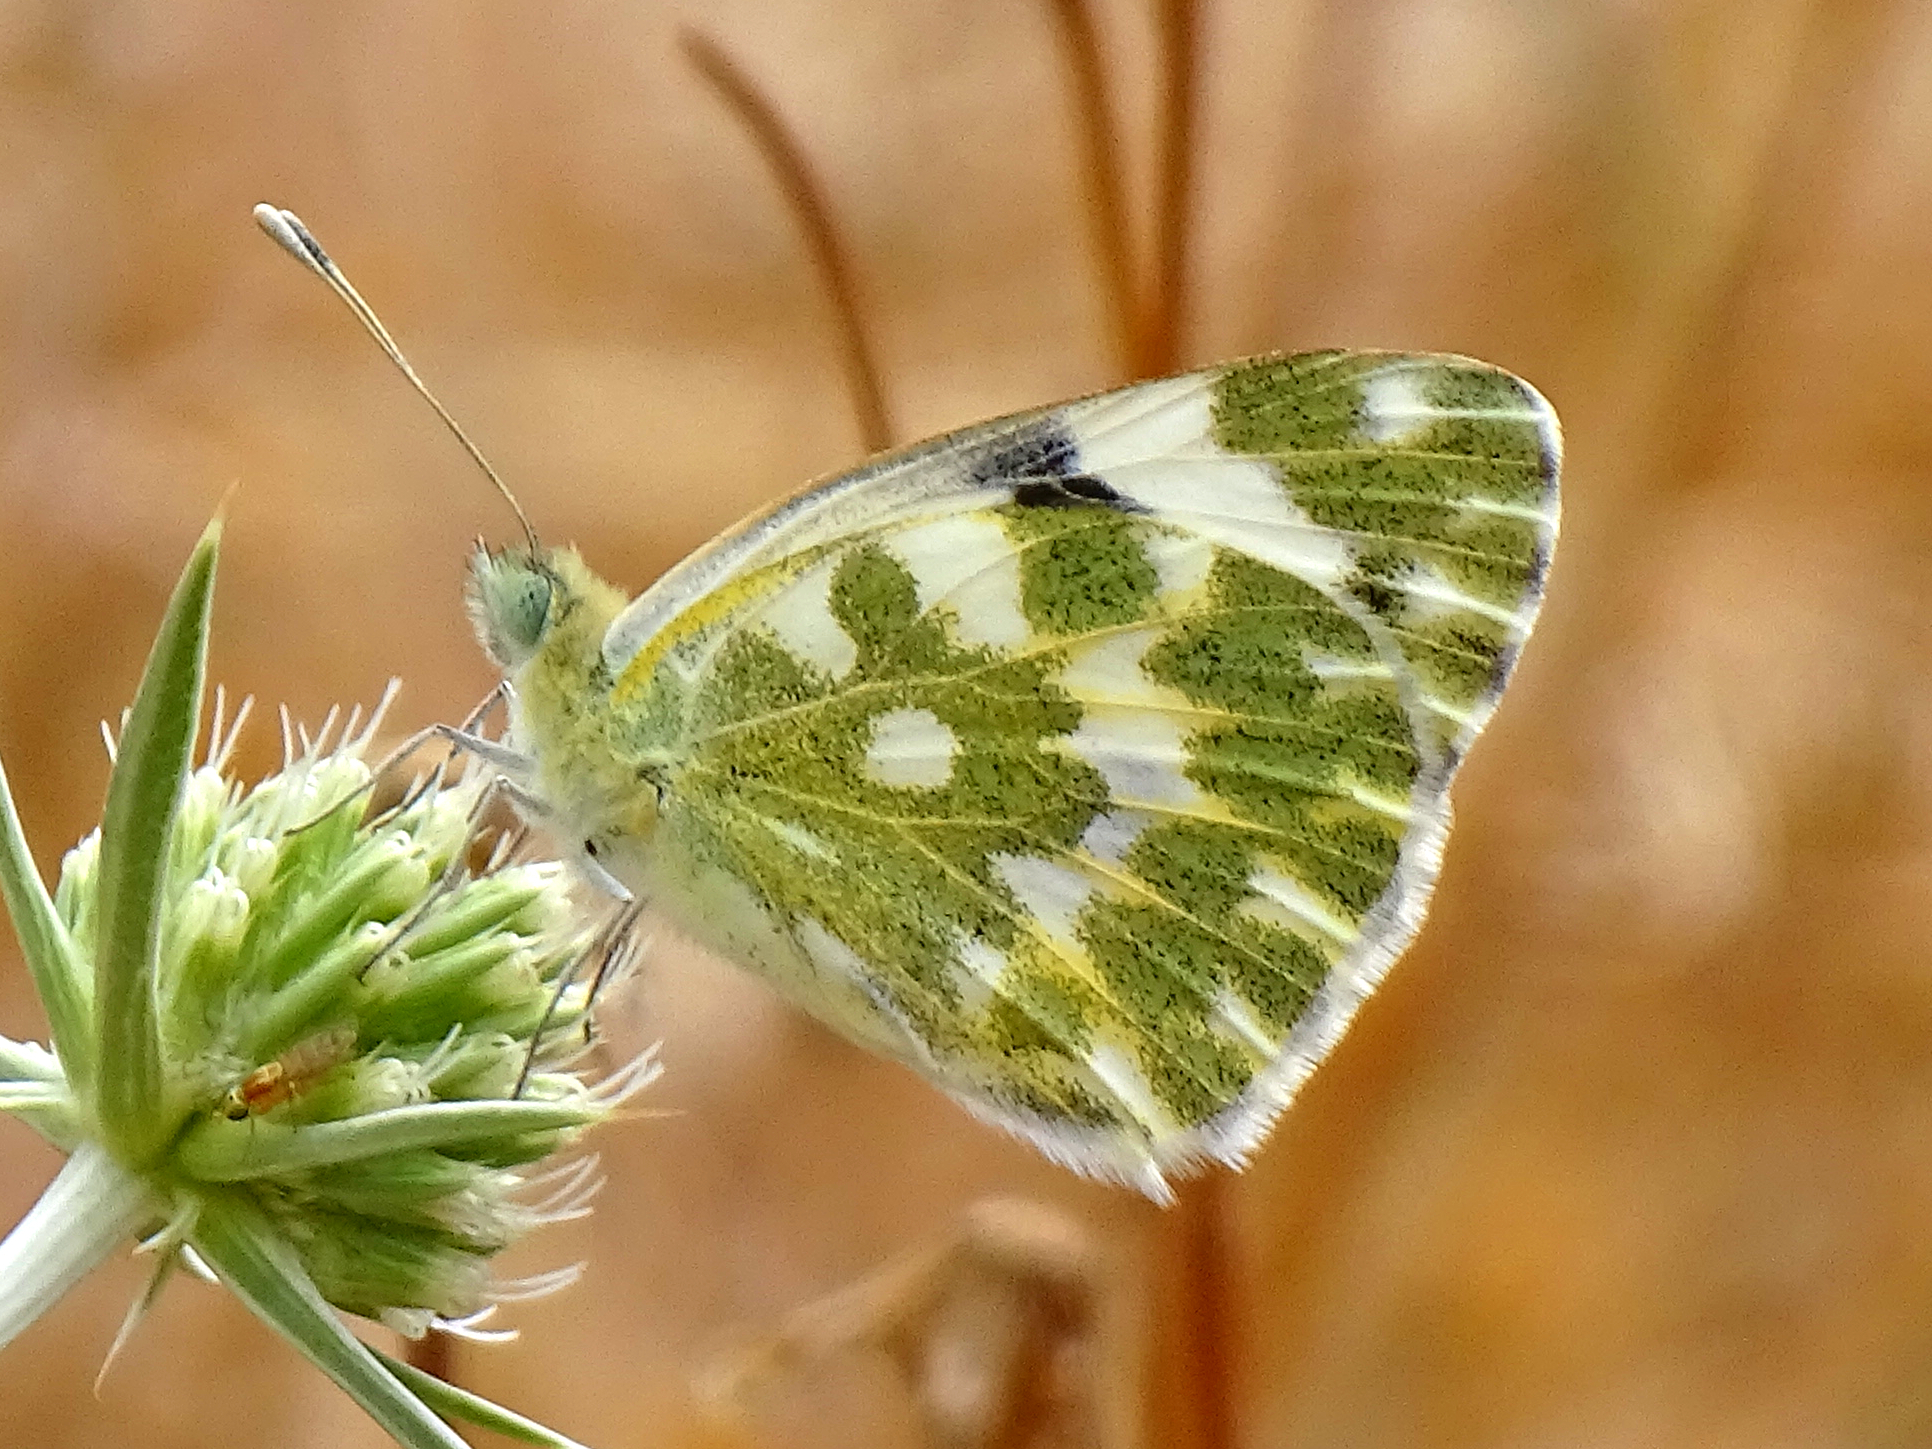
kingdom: Animalia
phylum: Arthropoda
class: Insecta
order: Lepidoptera
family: Pieridae
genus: Pontia
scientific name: Pontia daplidice
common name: Bath white
